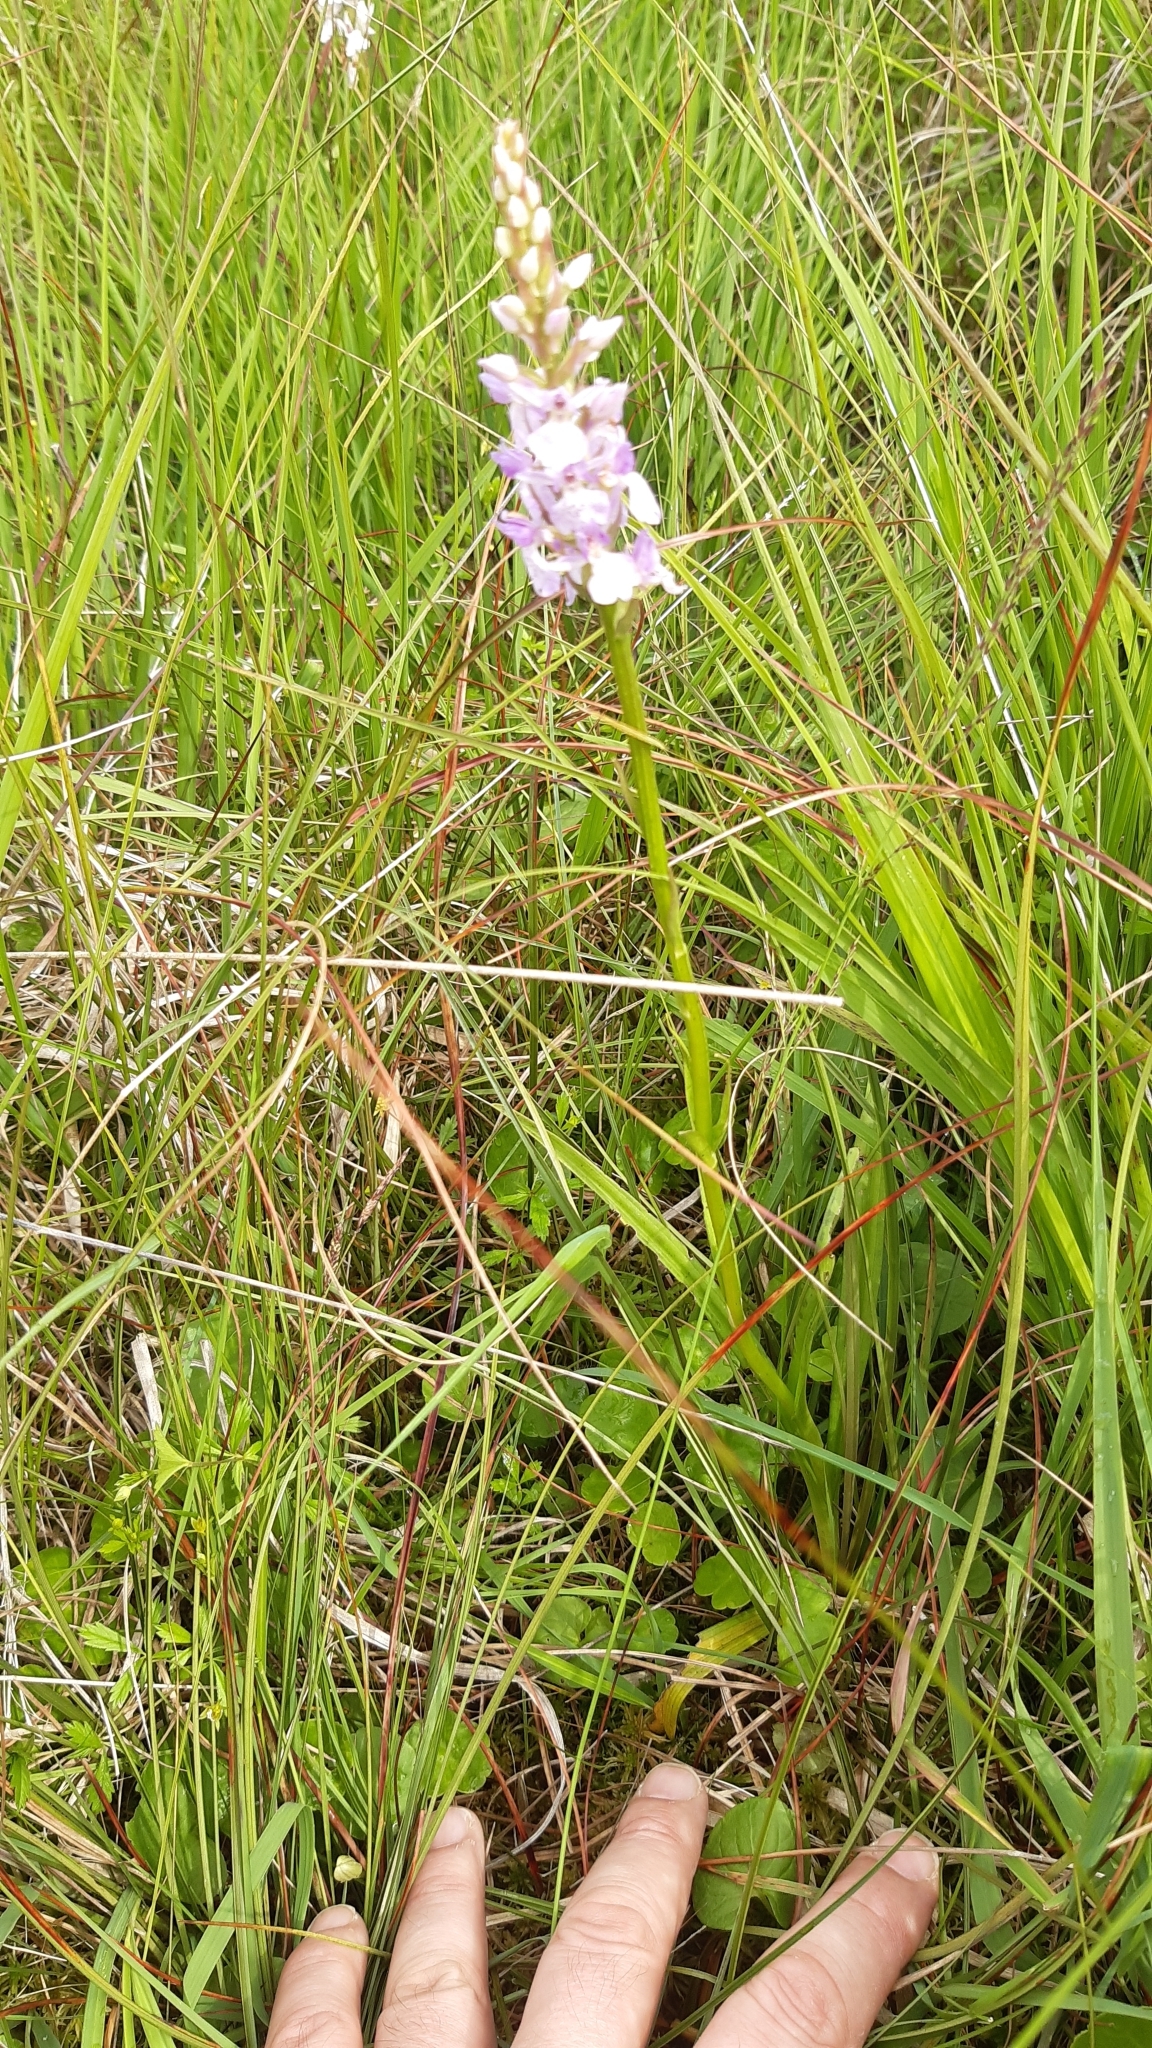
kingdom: Plantae
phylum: Tracheophyta
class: Liliopsida
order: Asparagales
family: Orchidaceae
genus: Dactylorhiza
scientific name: Dactylorhiza maculata
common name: Heath spotted-orchid
